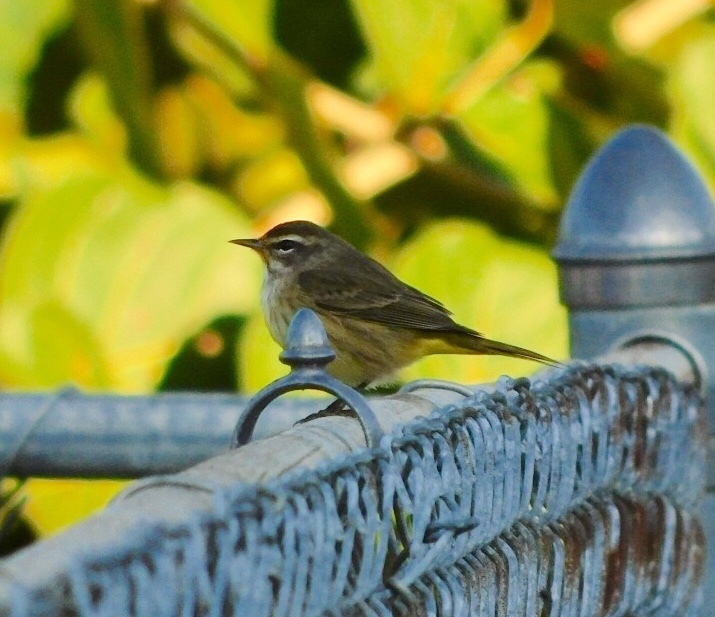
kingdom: Animalia
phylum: Chordata
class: Aves
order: Passeriformes
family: Parulidae
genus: Setophaga
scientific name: Setophaga palmarum
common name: Palm warbler
